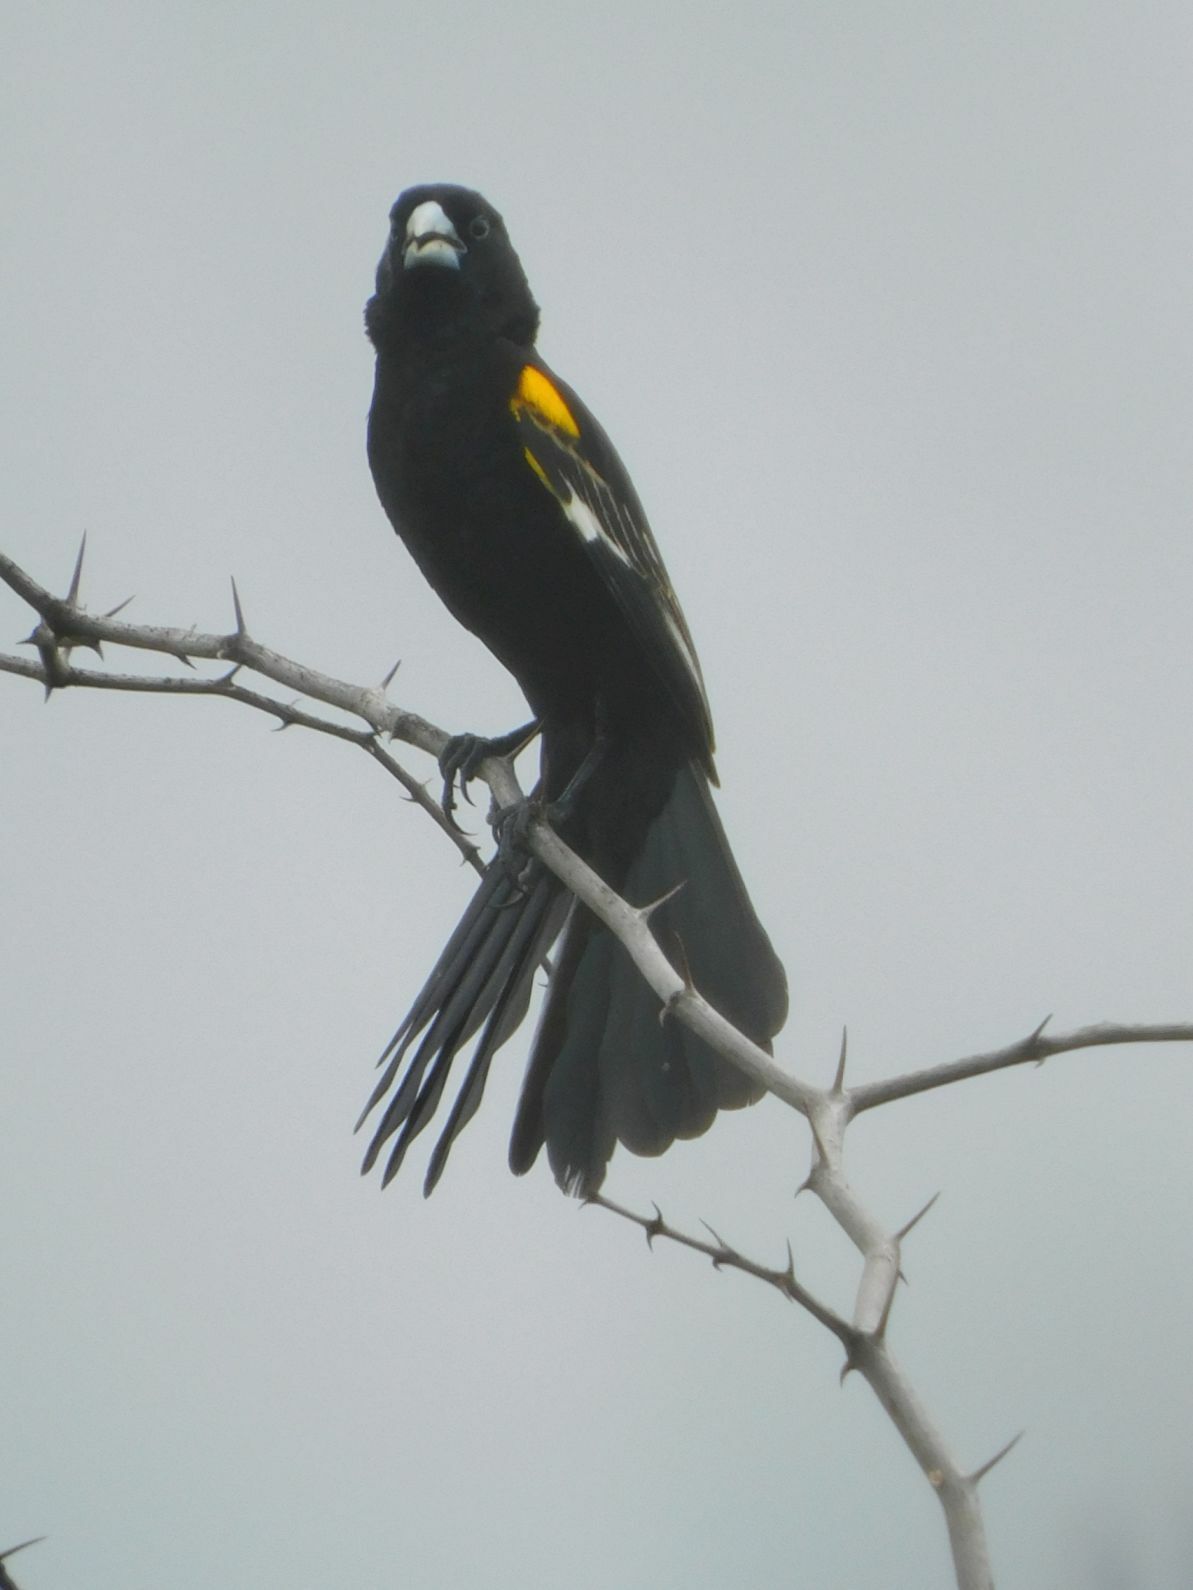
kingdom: Animalia
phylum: Chordata
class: Aves
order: Passeriformes
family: Ploceidae
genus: Euplectes
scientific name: Euplectes albonotatus
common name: White-winged widowbird
